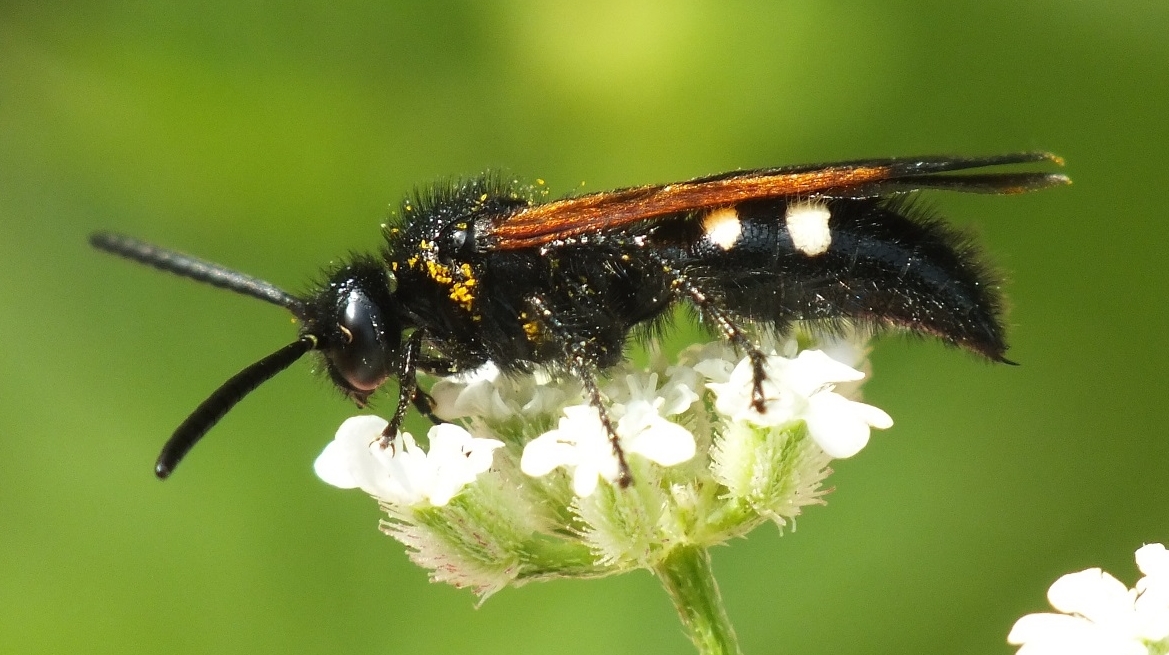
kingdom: Animalia
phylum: Arthropoda
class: Insecta
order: Hymenoptera
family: Vespidae
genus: Vespa
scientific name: Vespa sexmaculata
